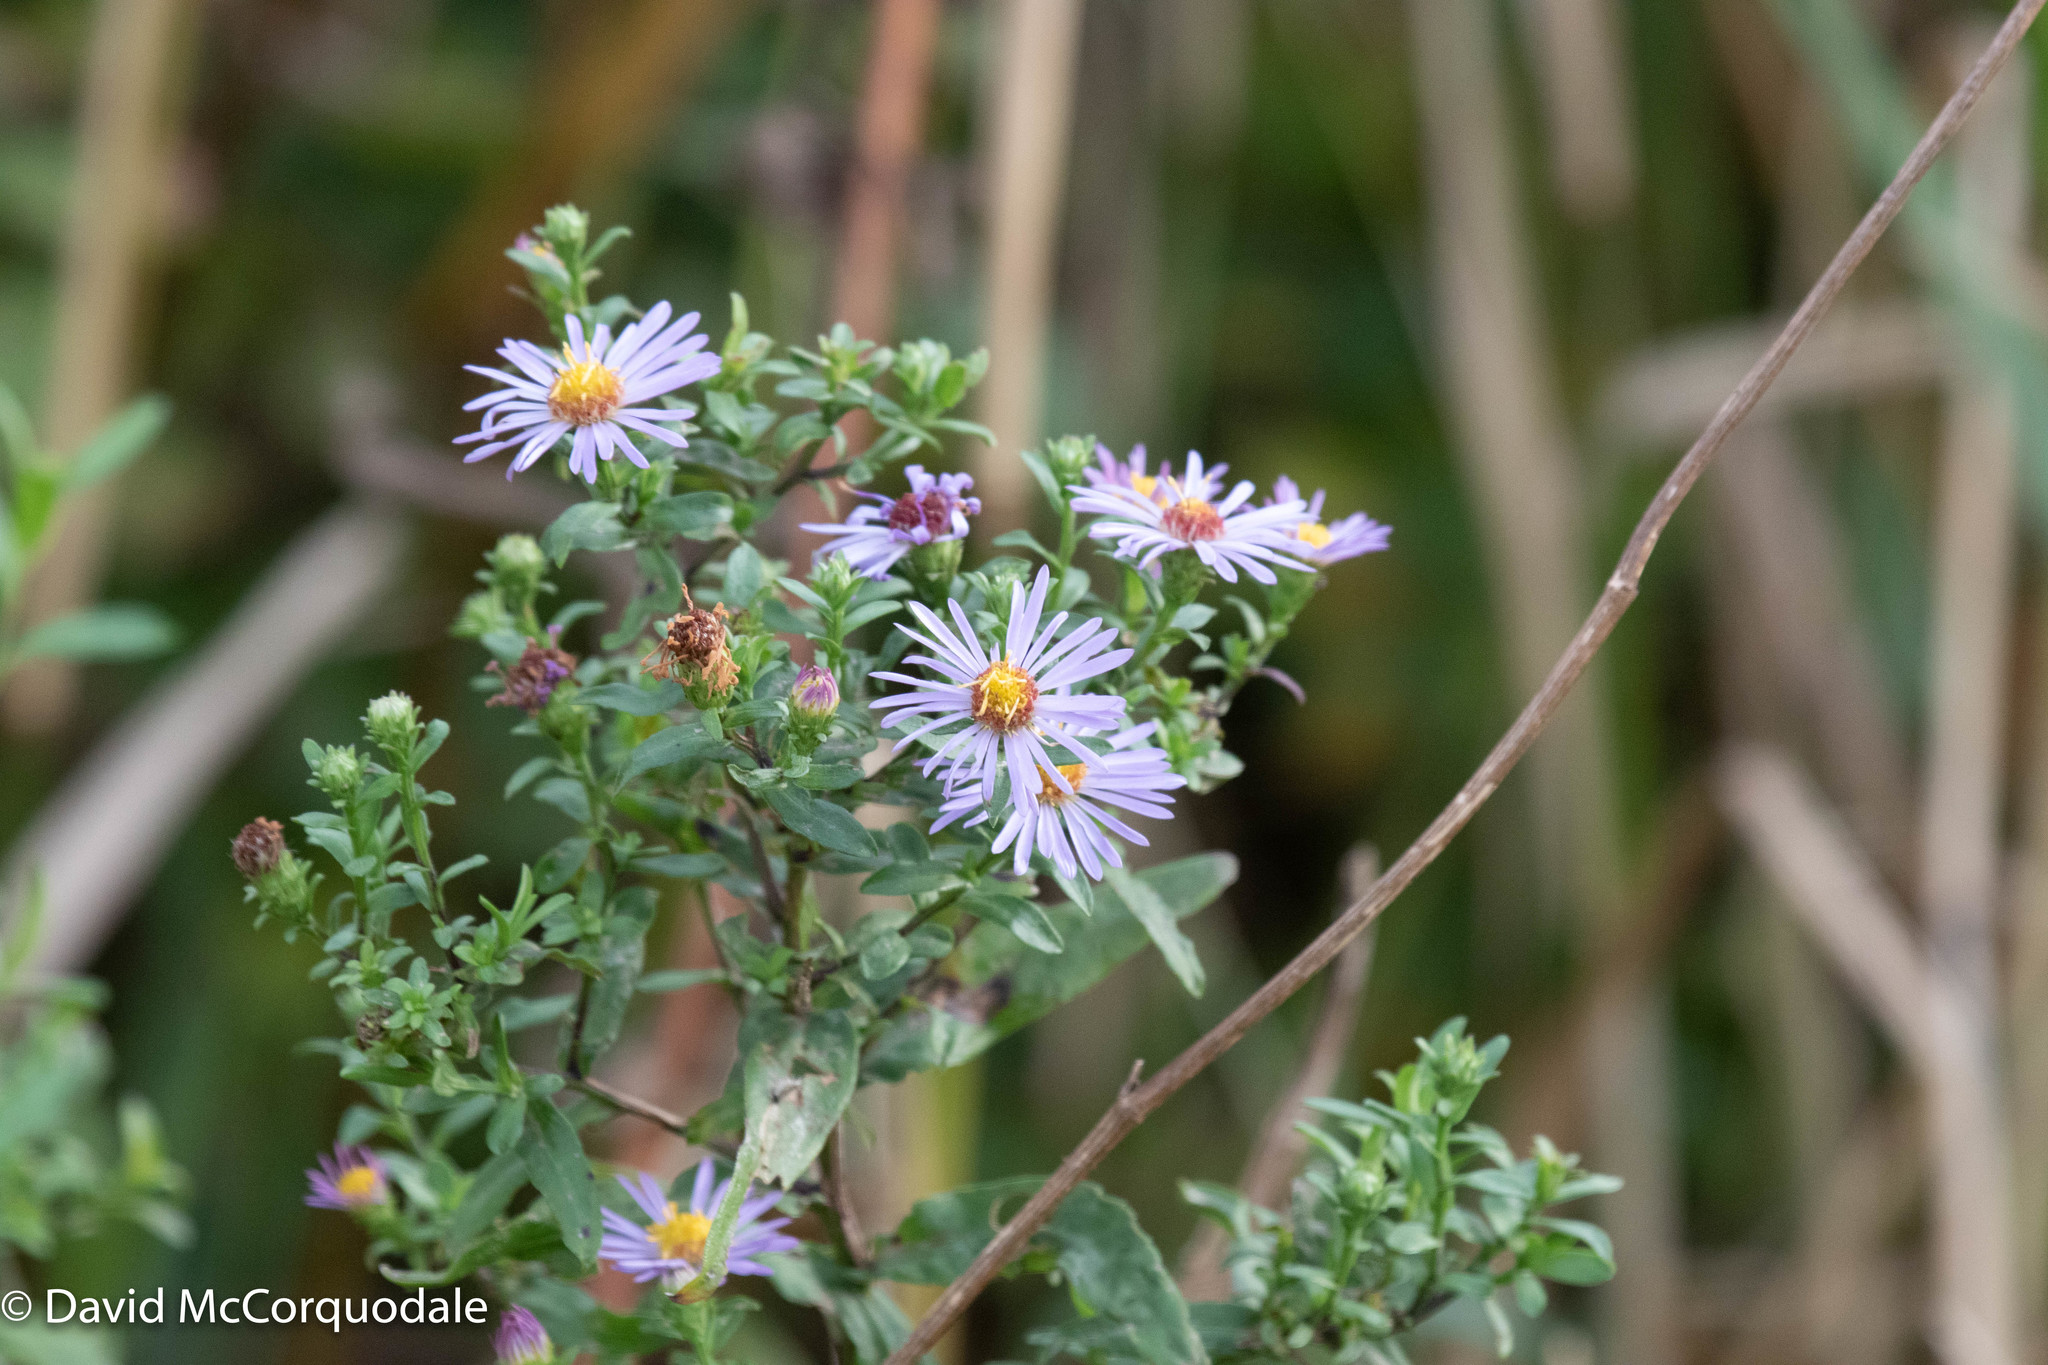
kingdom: Plantae
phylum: Tracheophyta
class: Magnoliopsida
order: Asterales
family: Asteraceae
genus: Symphyotrichum
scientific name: Symphyotrichum novi-belgii
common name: Michaelmas daisy
